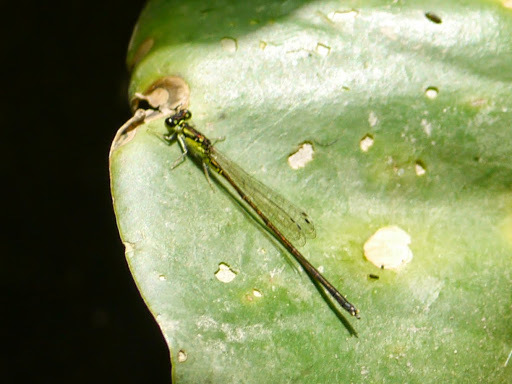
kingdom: Animalia
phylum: Arthropoda
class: Insecta
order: Odonata
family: Coenagrionidae
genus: Ischnura
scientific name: Ischnura posita
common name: Fragile forktail
